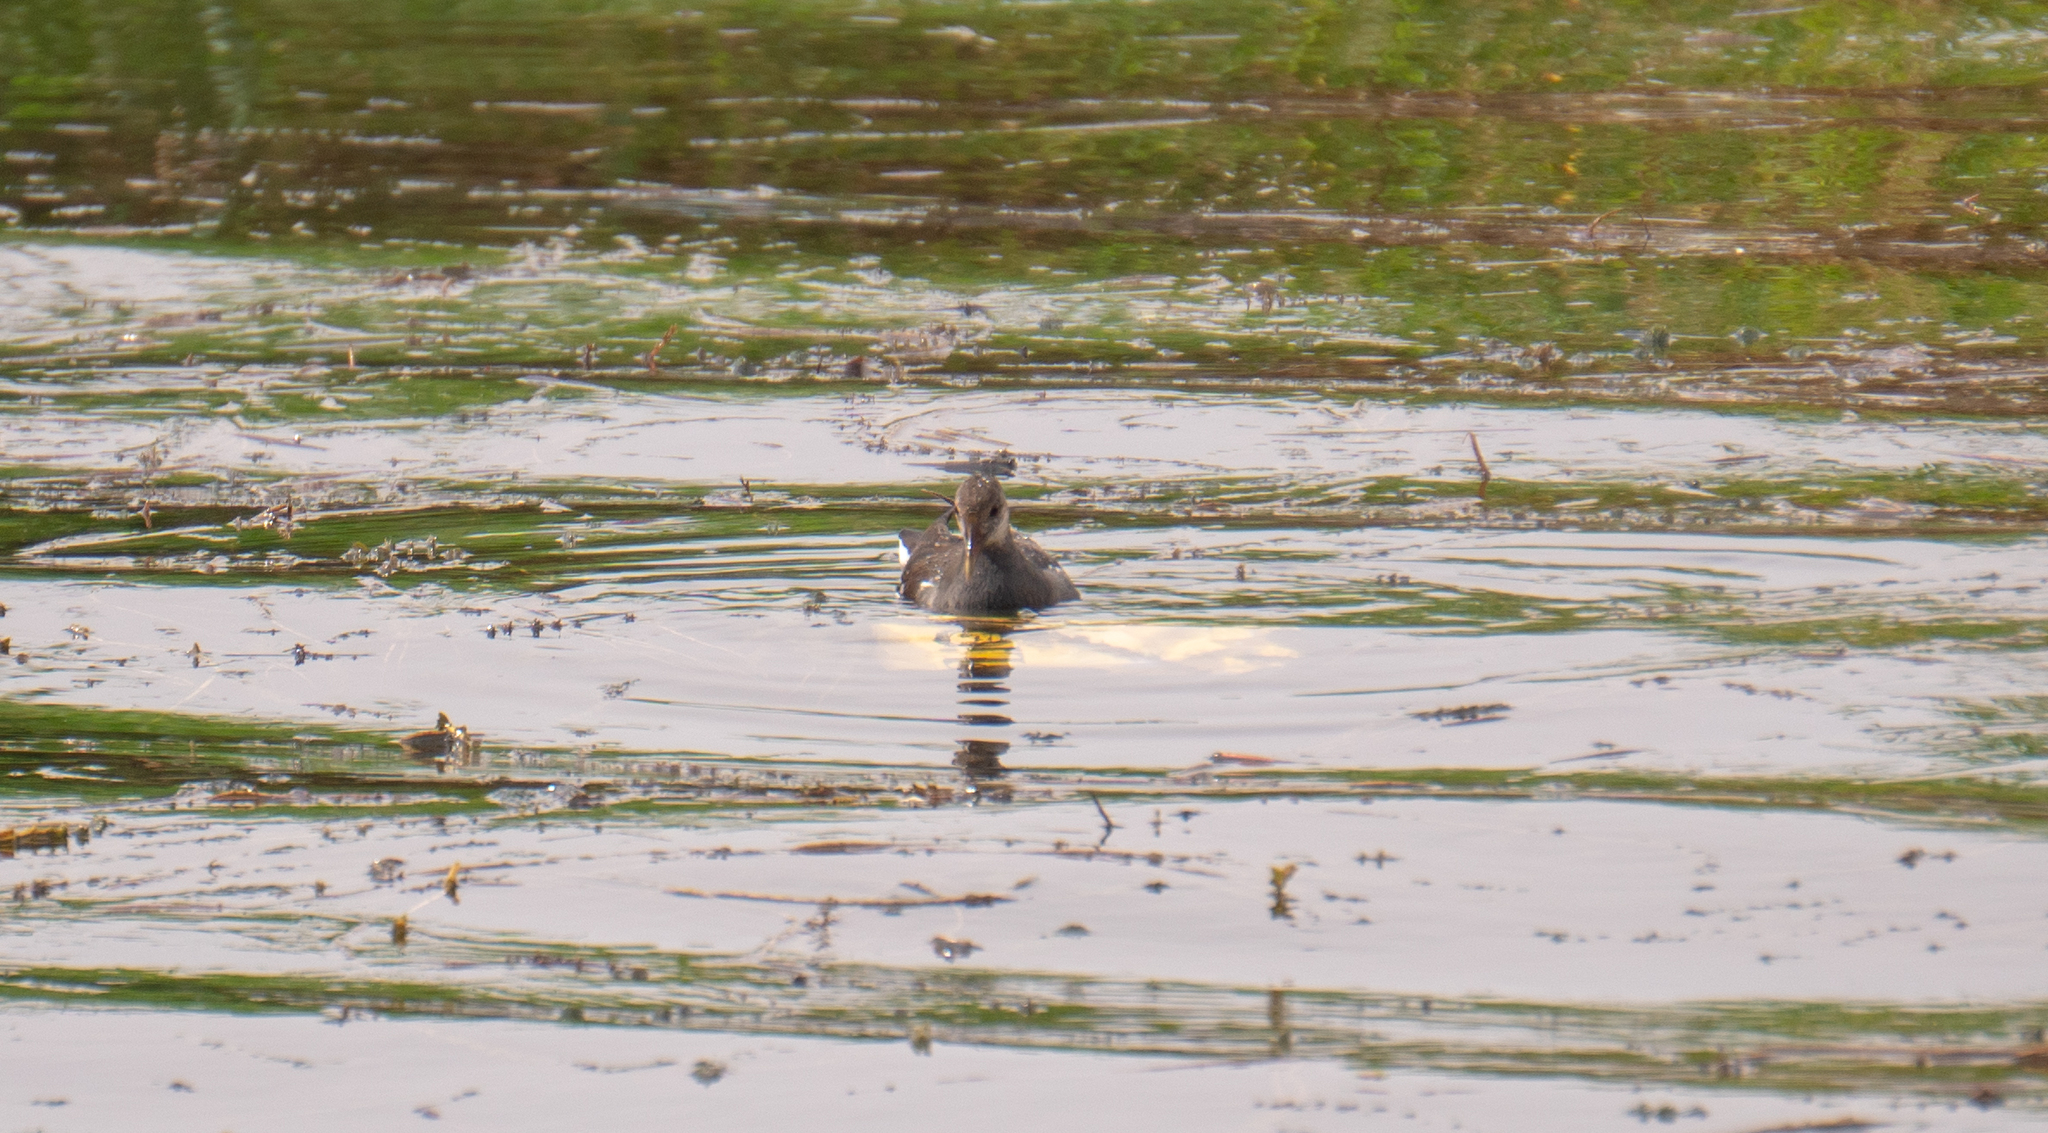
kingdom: Animalia
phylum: Chordata
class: Aves
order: Gruiformes
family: Rallidae
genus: Gallinula
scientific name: Gallinula chloropus
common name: Common moorhen
